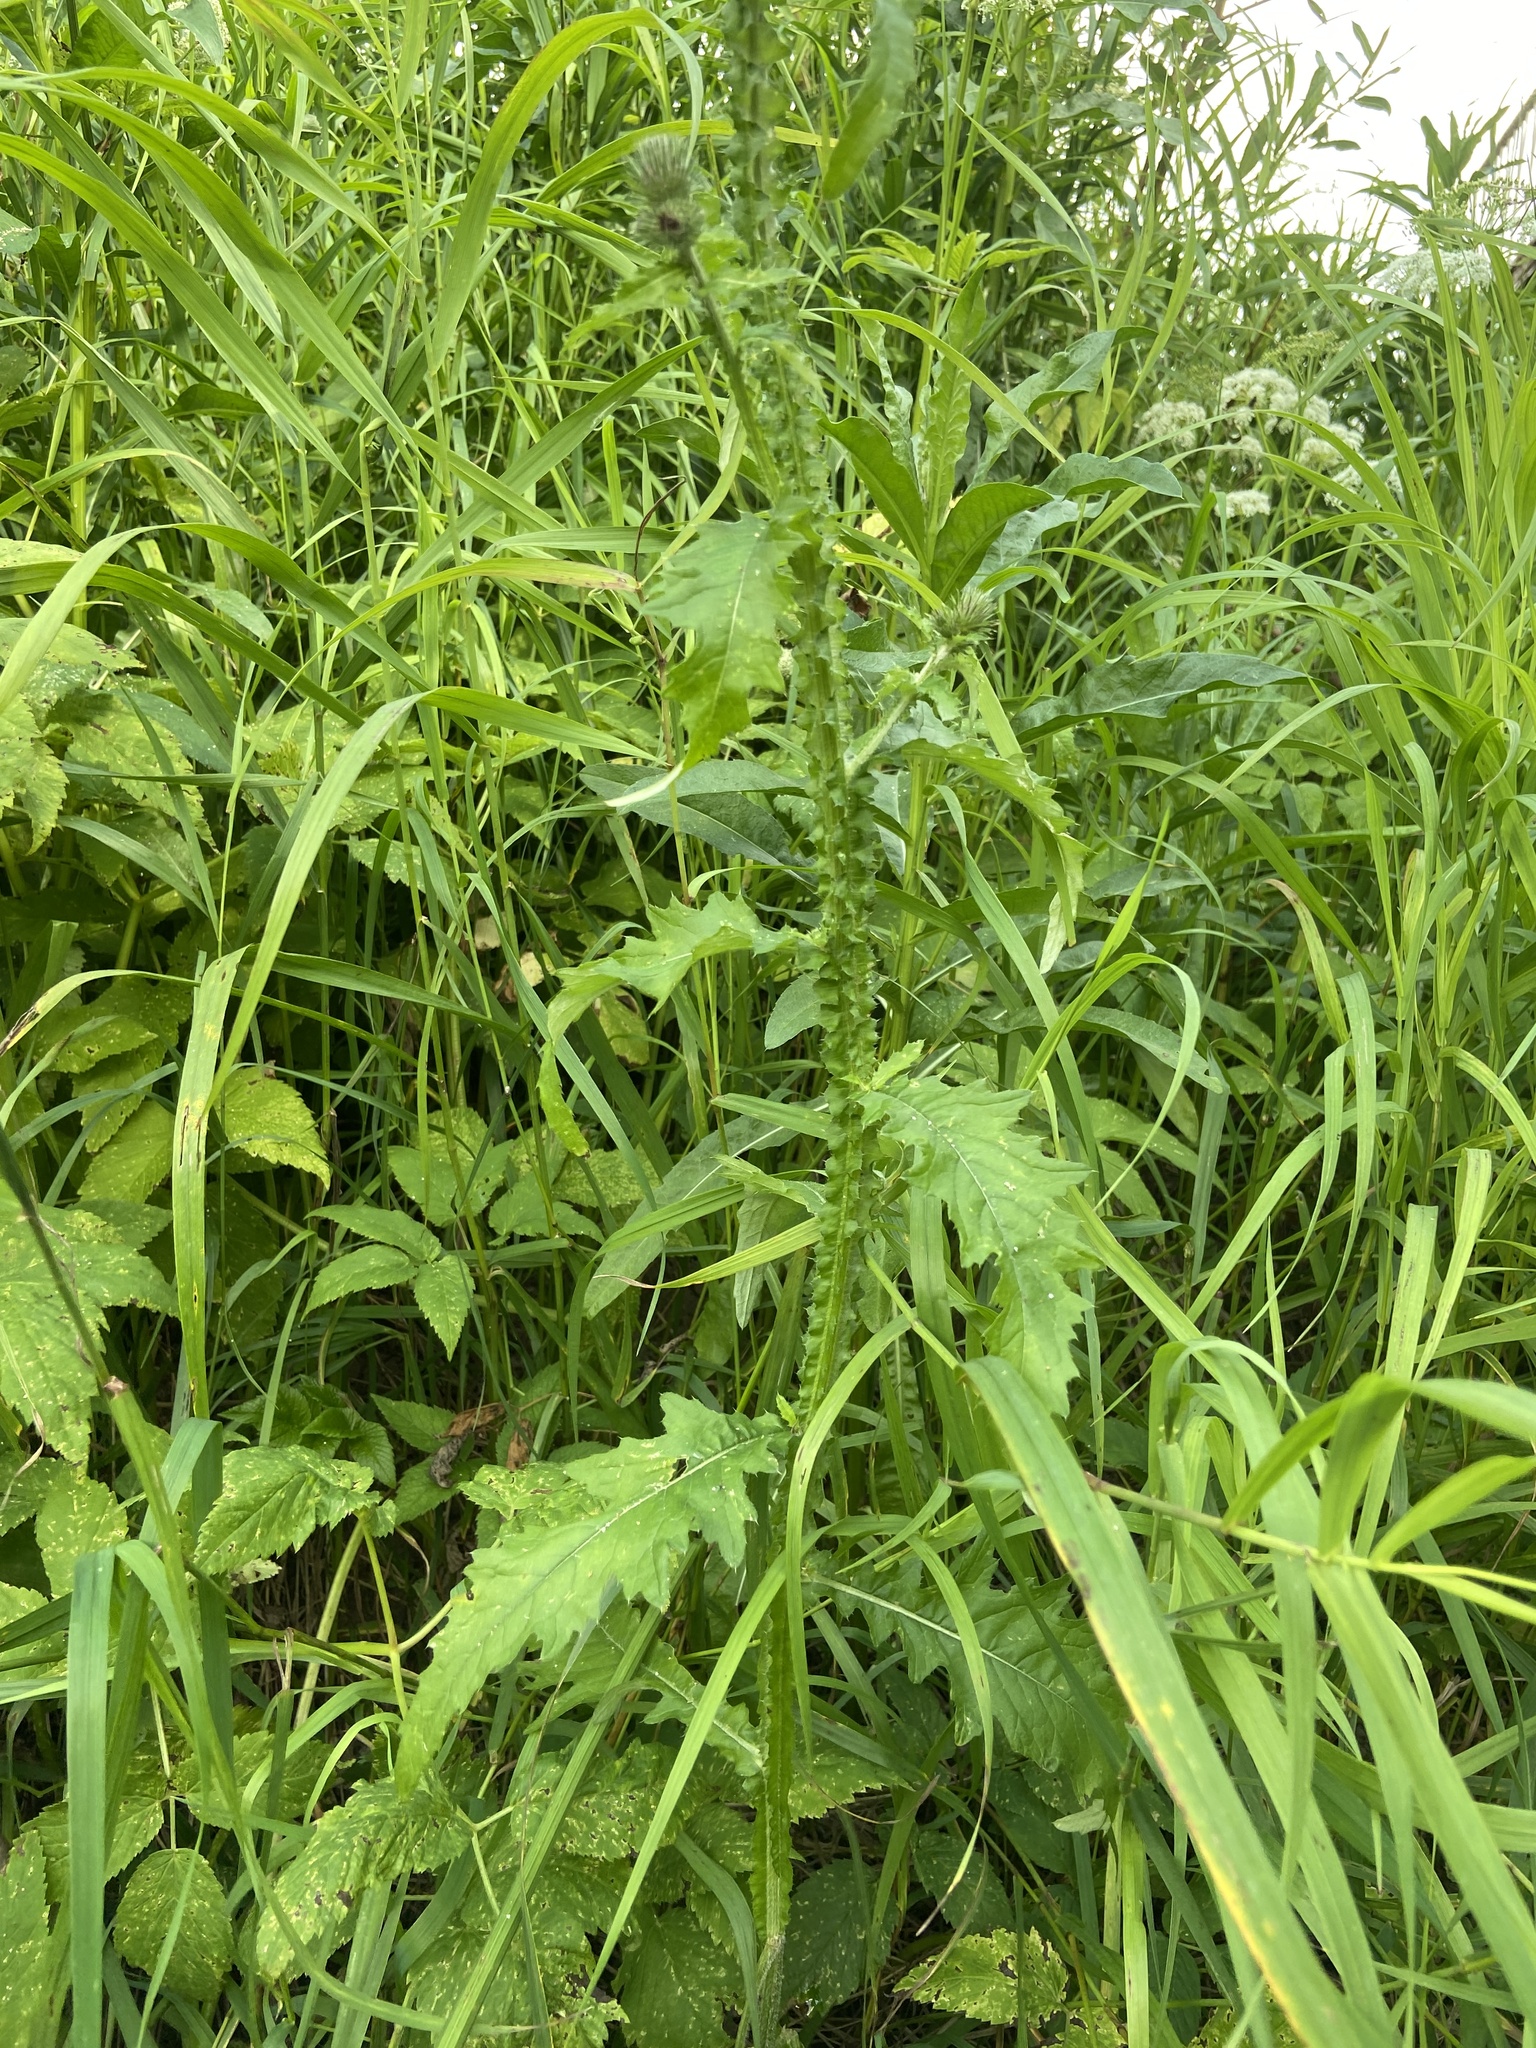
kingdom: Plantae
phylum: Tracheophyta
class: Magnoliopsida
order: Asterales
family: Asteraceae
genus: Carduus
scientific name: Carduus crispus
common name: Welted thistle
